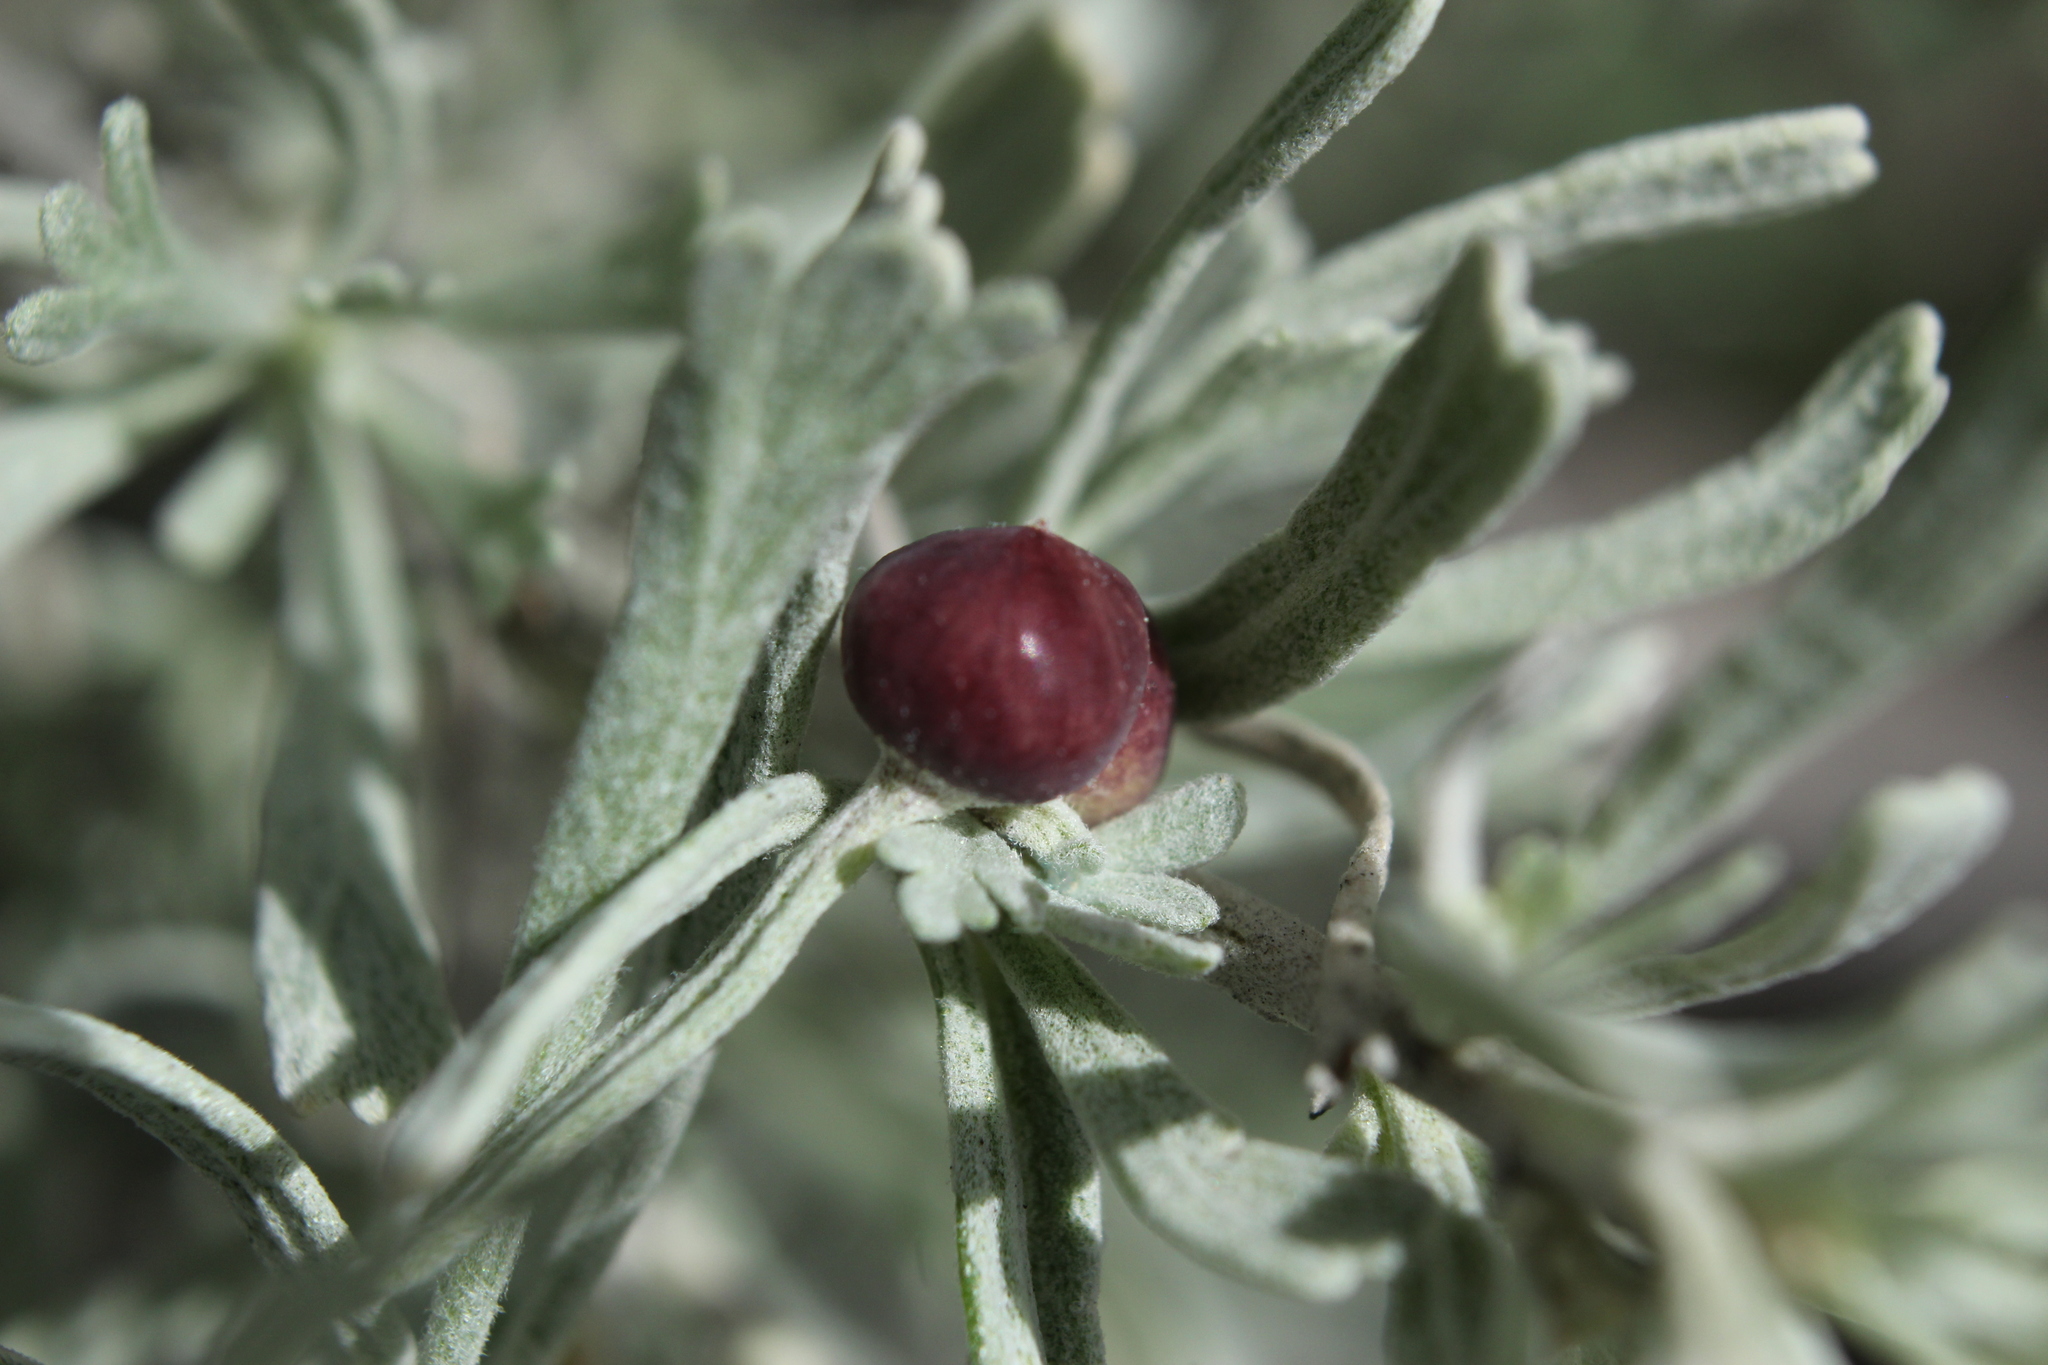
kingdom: Animalia
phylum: Arthropoda
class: Insecta
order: Diptera
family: Cecidomyiidae
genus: Rhopalomyia
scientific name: Rhopalomyia calvipomum
